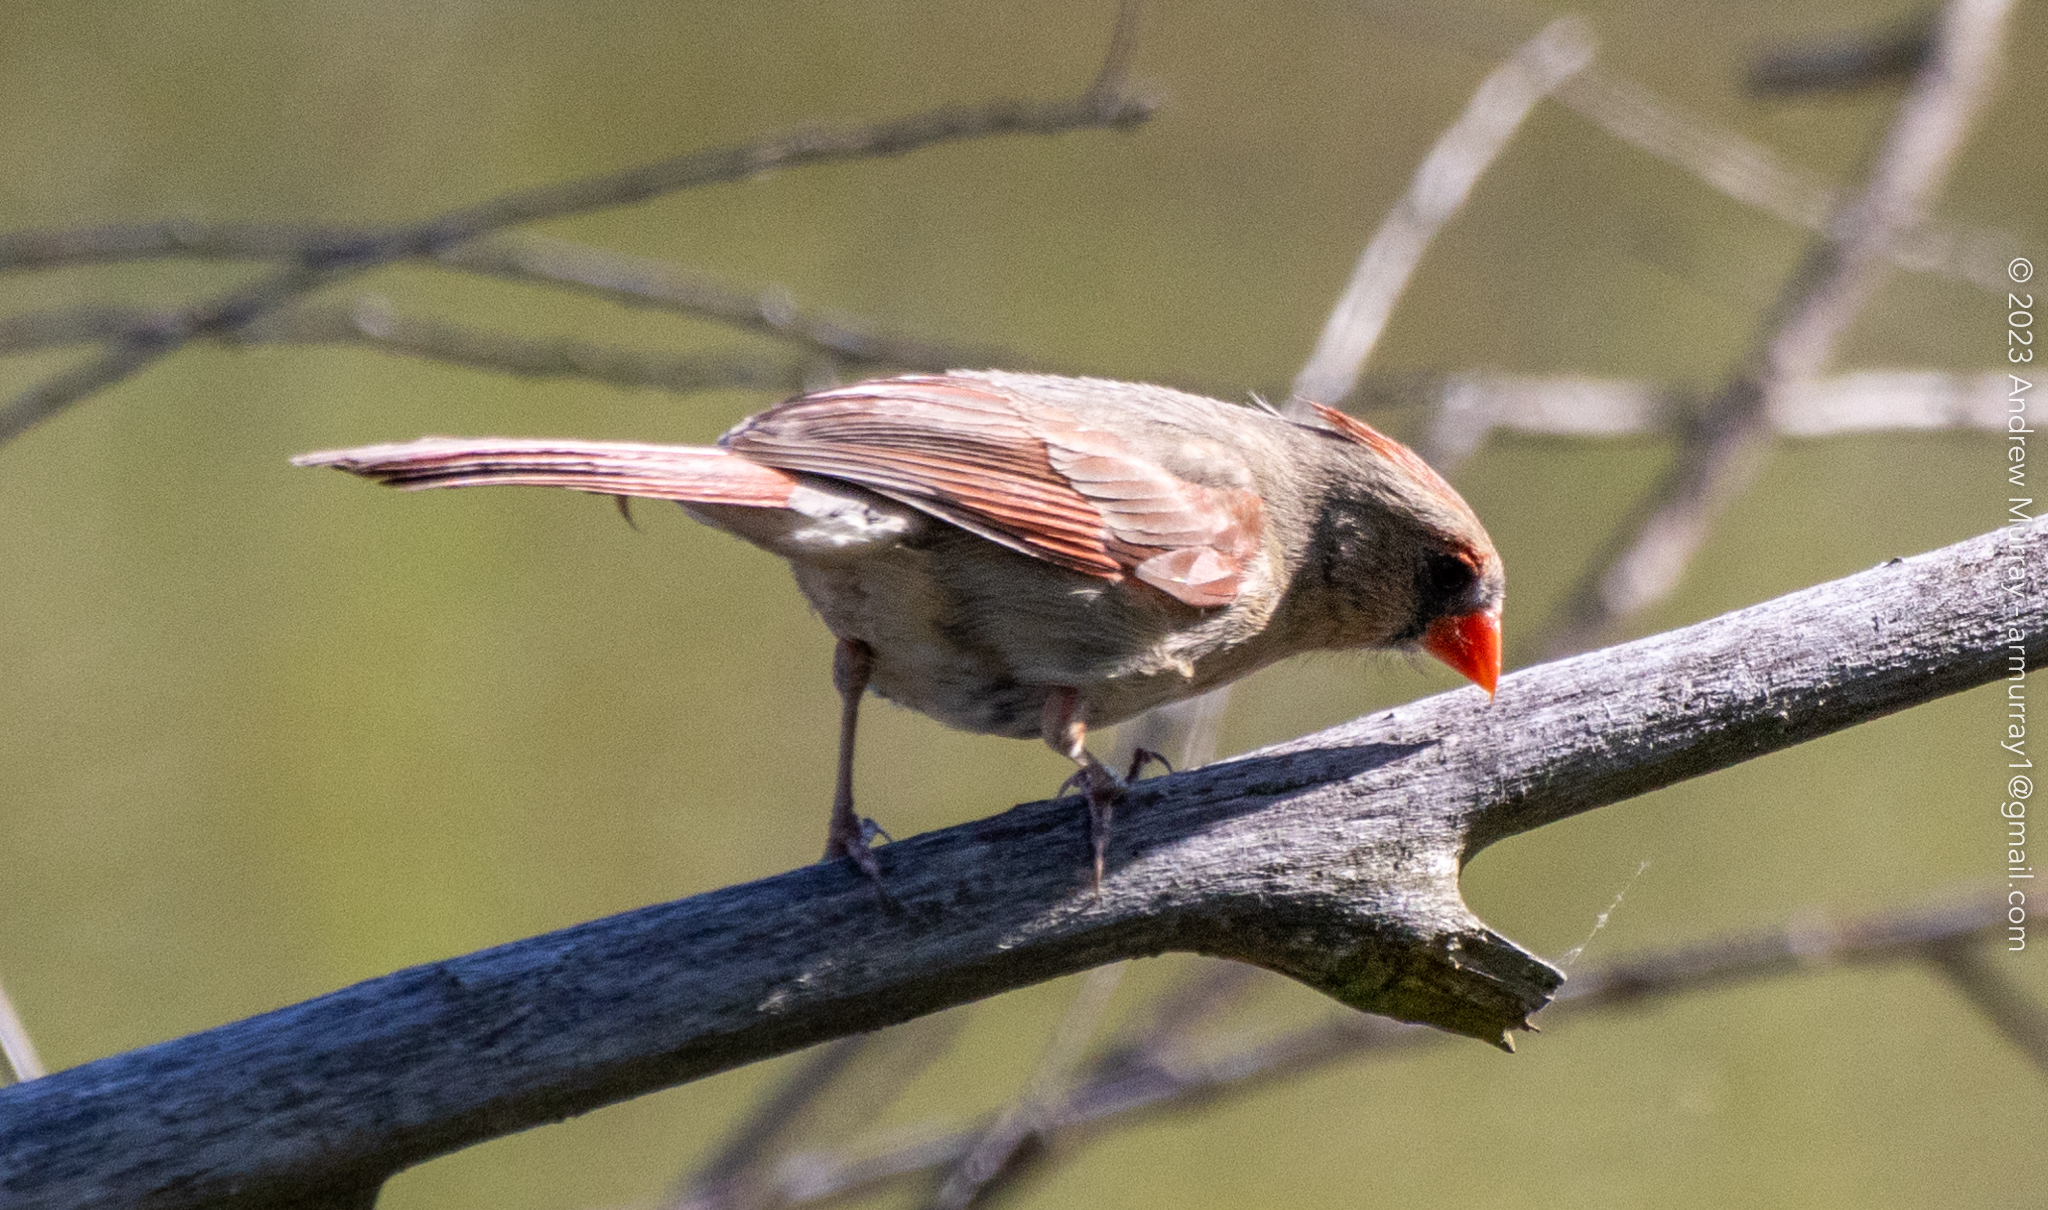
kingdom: Animalia
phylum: Chordata
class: Aves
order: Passeriformes
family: Cardinalidae
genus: Cardinalis
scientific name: Cardinalis cardinalis
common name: Northern cardinal
